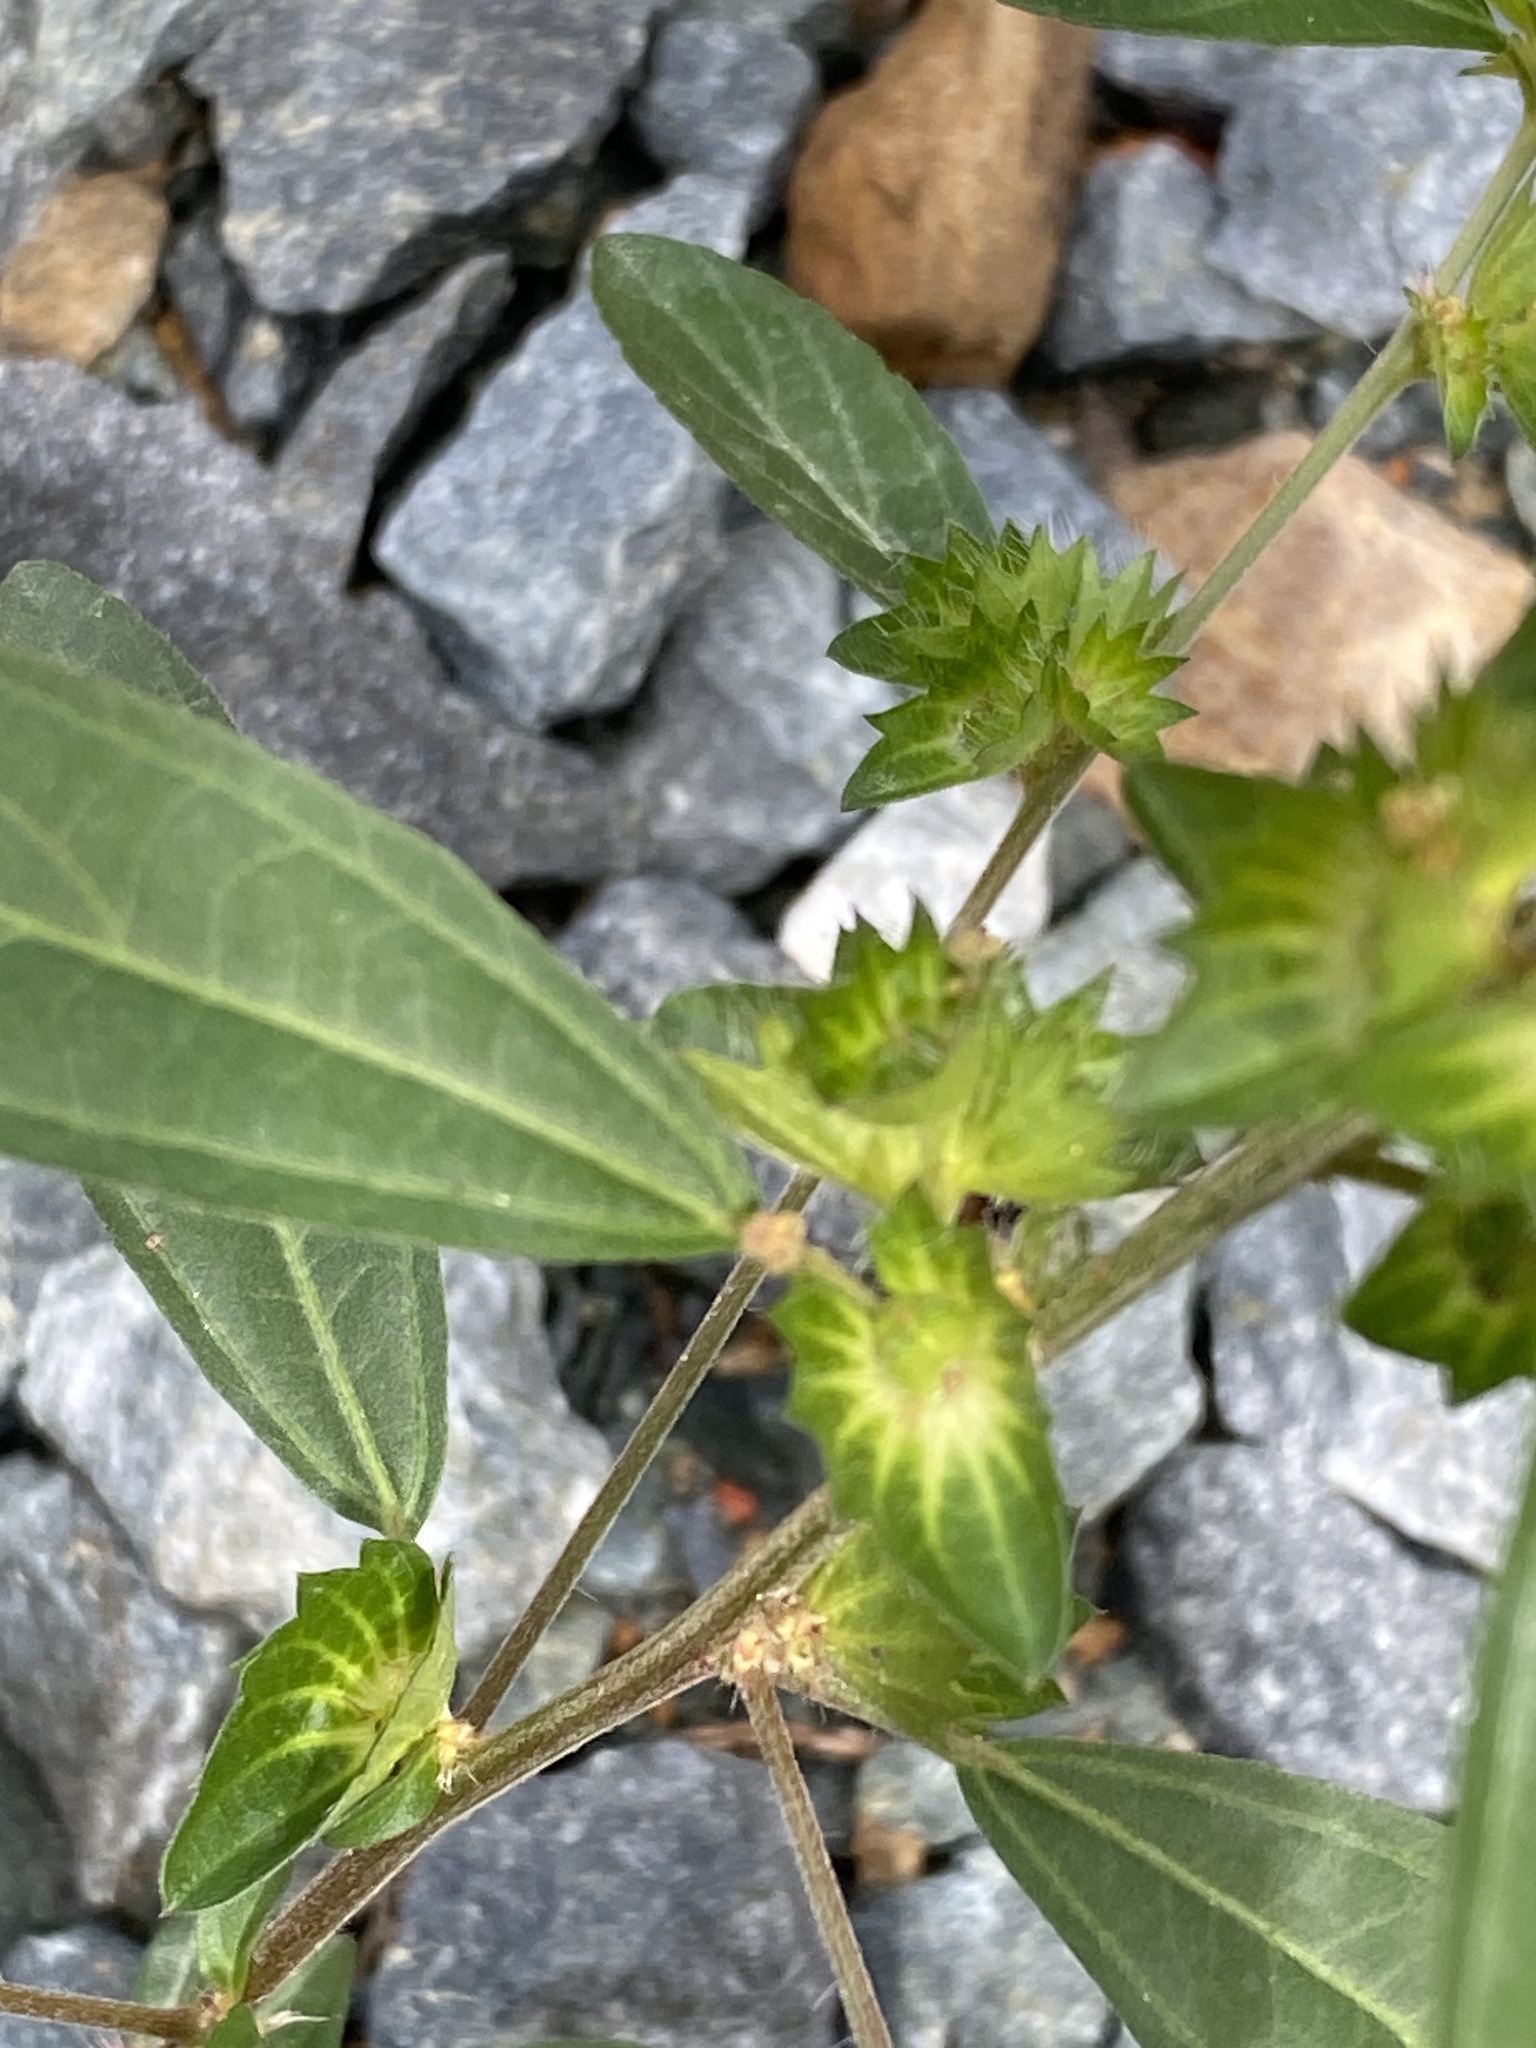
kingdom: Plantae
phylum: Tracheophyta
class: Magnoliopsida
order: Malpighiales
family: Euphorbiaceae
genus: Acalypha
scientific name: Acalypha gracilens
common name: Slender three-seeded mercury
